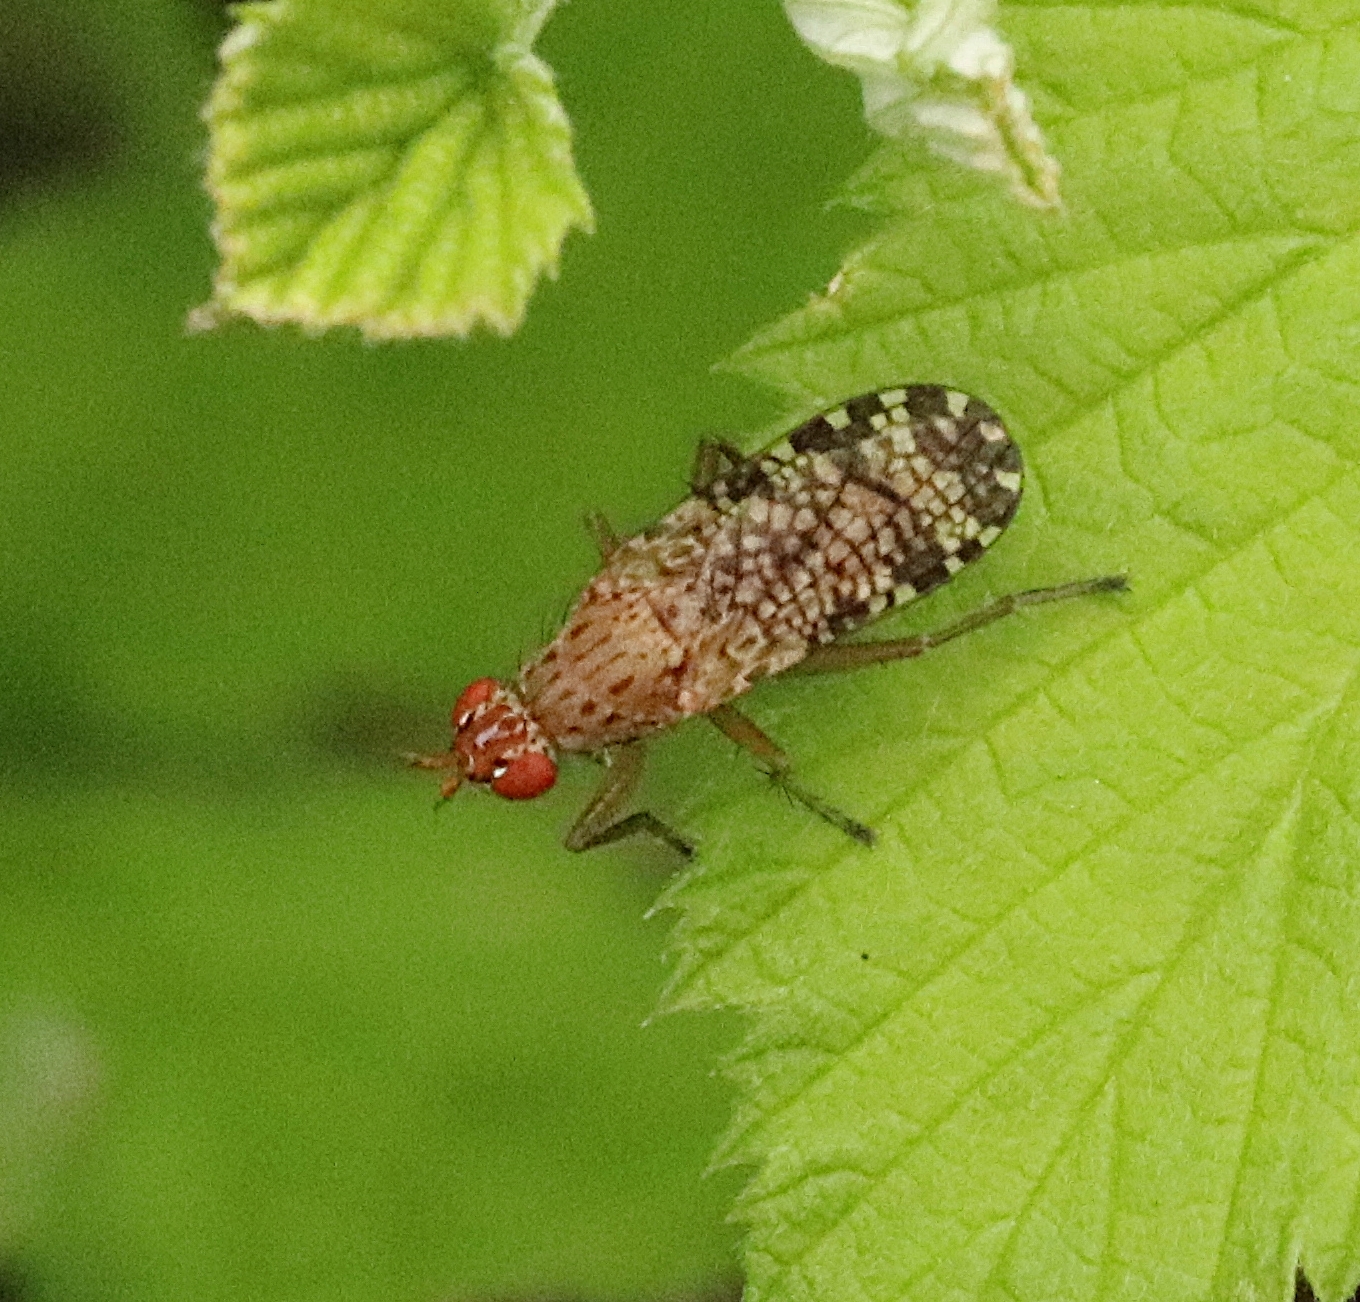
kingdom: Animalia
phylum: Arthropoda
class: Insecta
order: Diptera
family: Sciomyzidae
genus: Euthycera
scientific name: Euthycera chaerophylli
